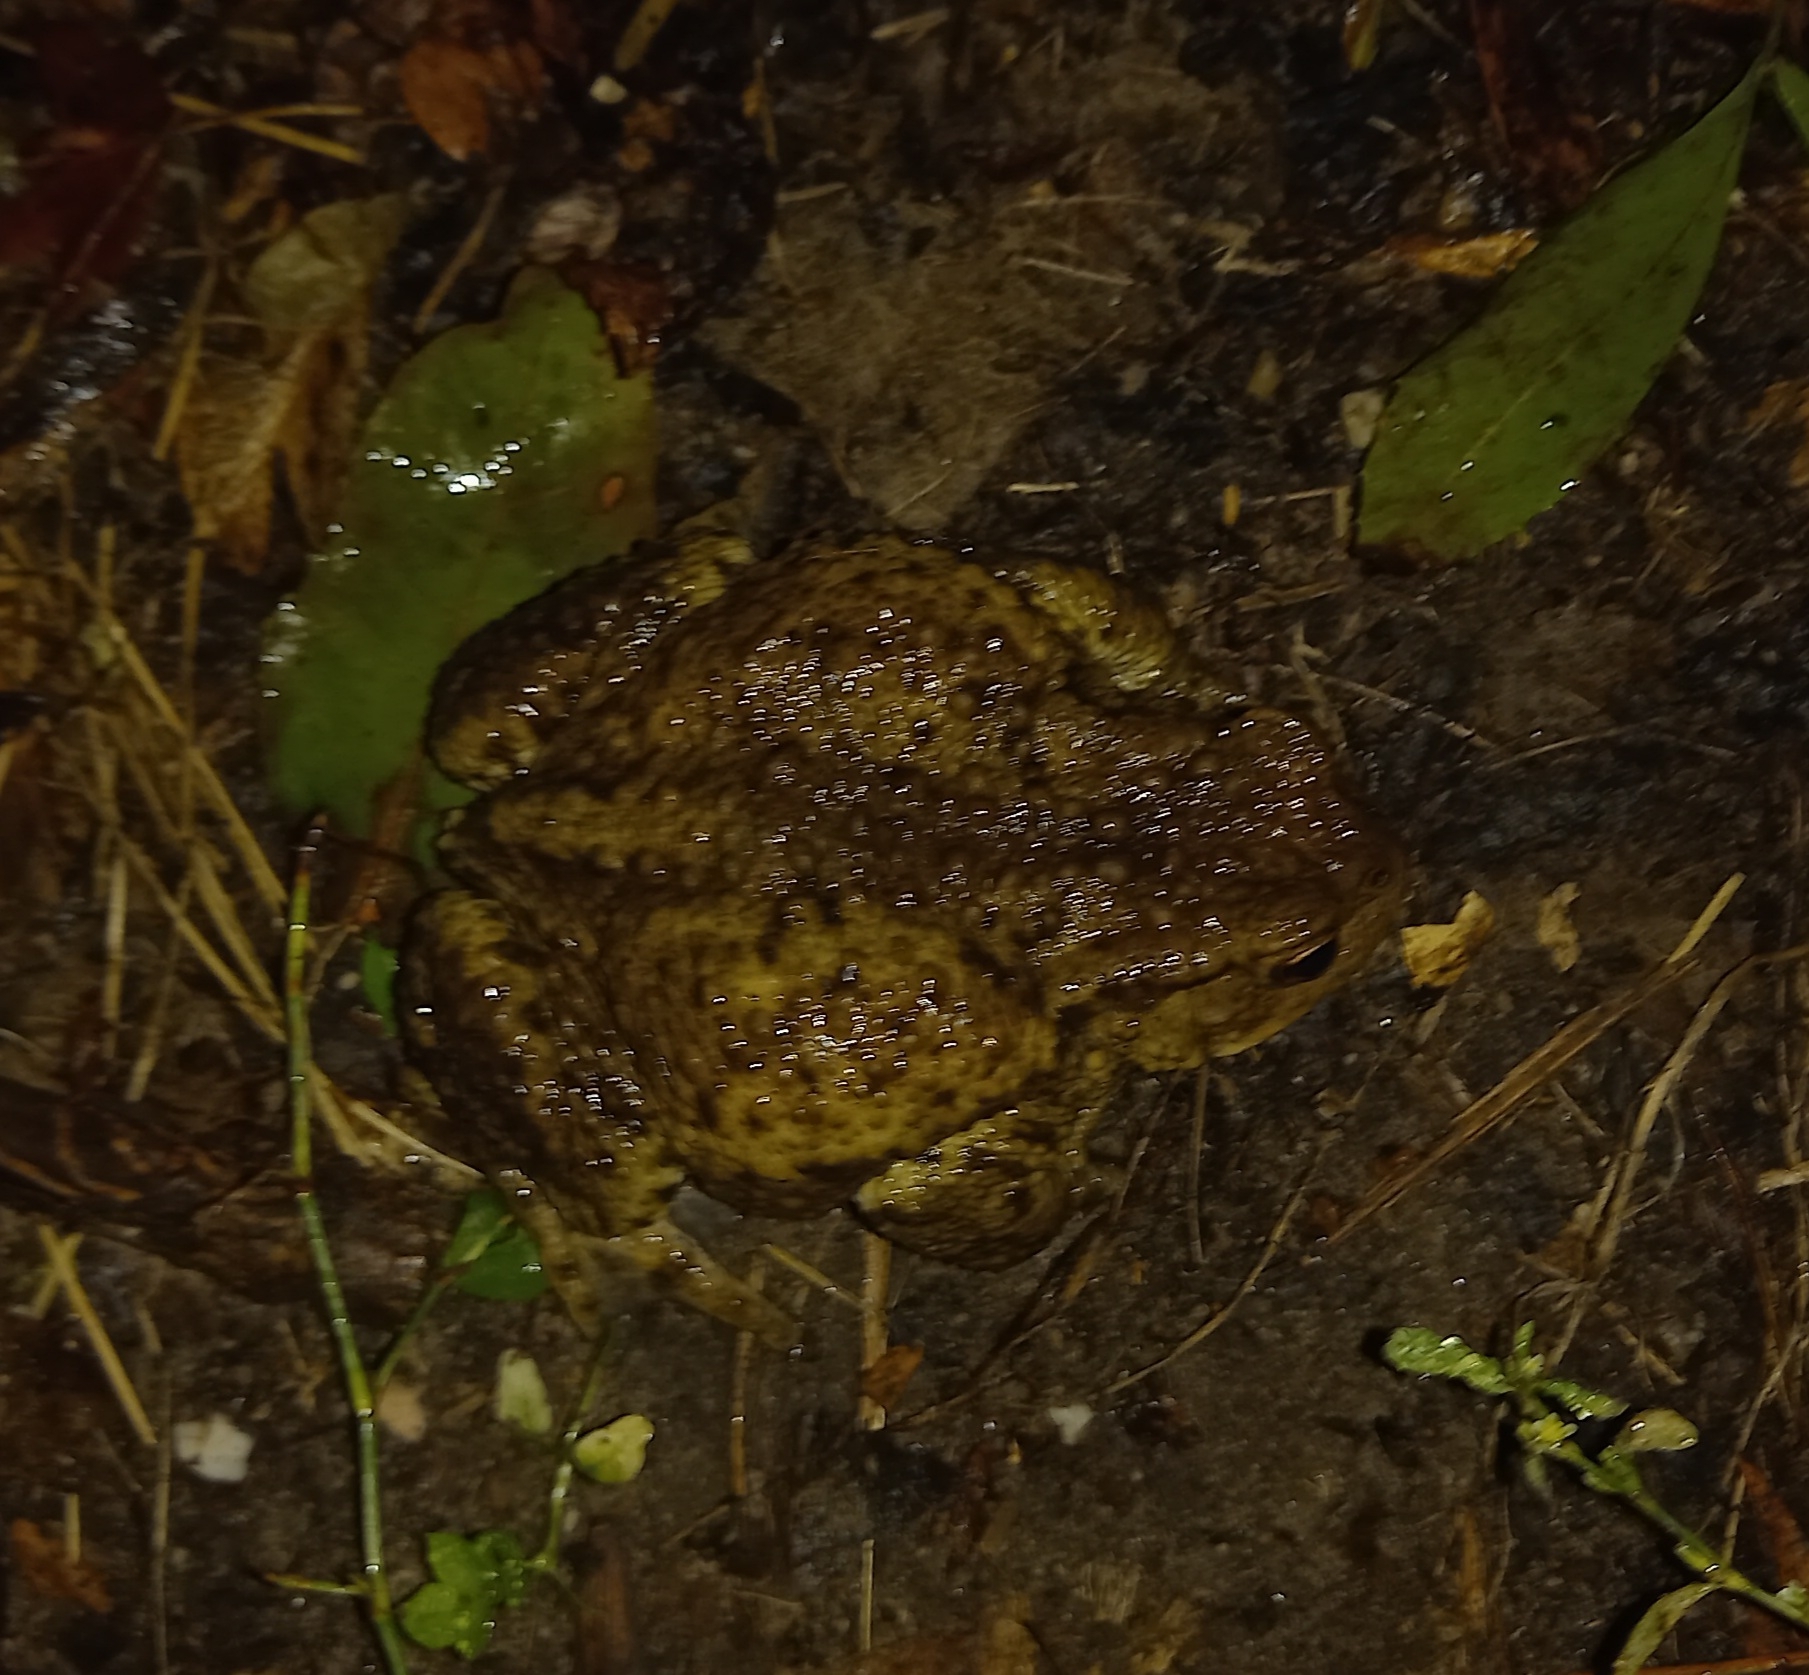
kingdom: Animalia
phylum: Chordata
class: Amphibia
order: Anura
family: Bufonidae
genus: Bufo
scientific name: Bufo bufo
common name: Common toad
